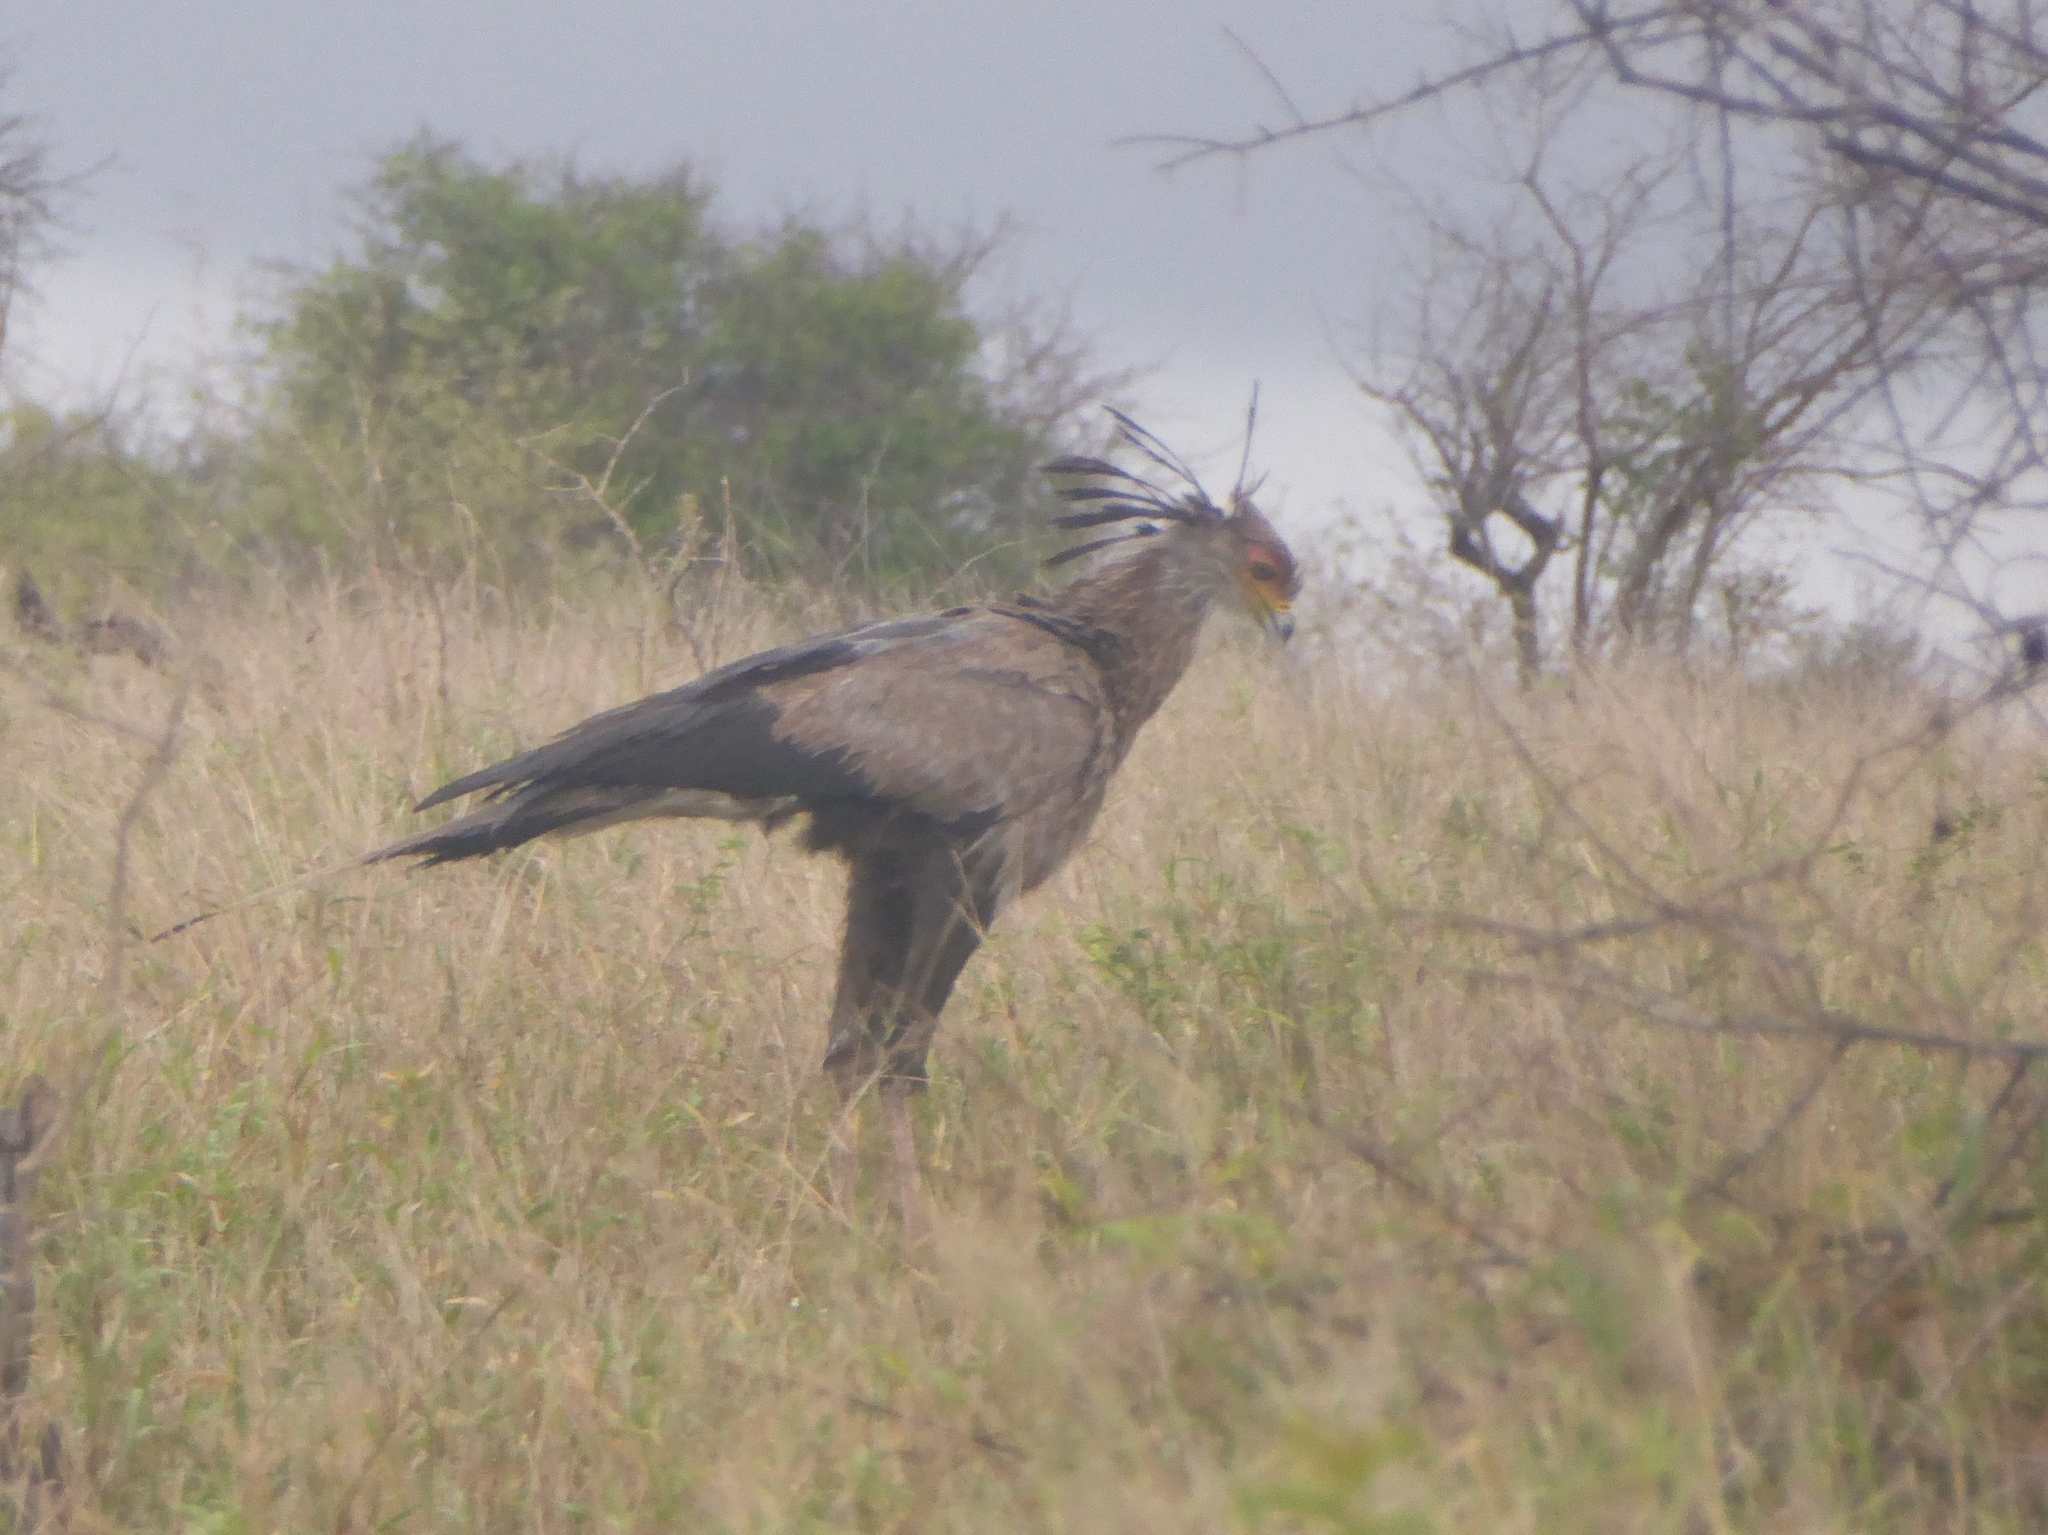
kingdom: Animalia
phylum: Chordata
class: Aves
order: Accipitriformes
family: Sagittariidae
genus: Sagittarius
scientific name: Sagittarius serpentarius
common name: Secretarybird
